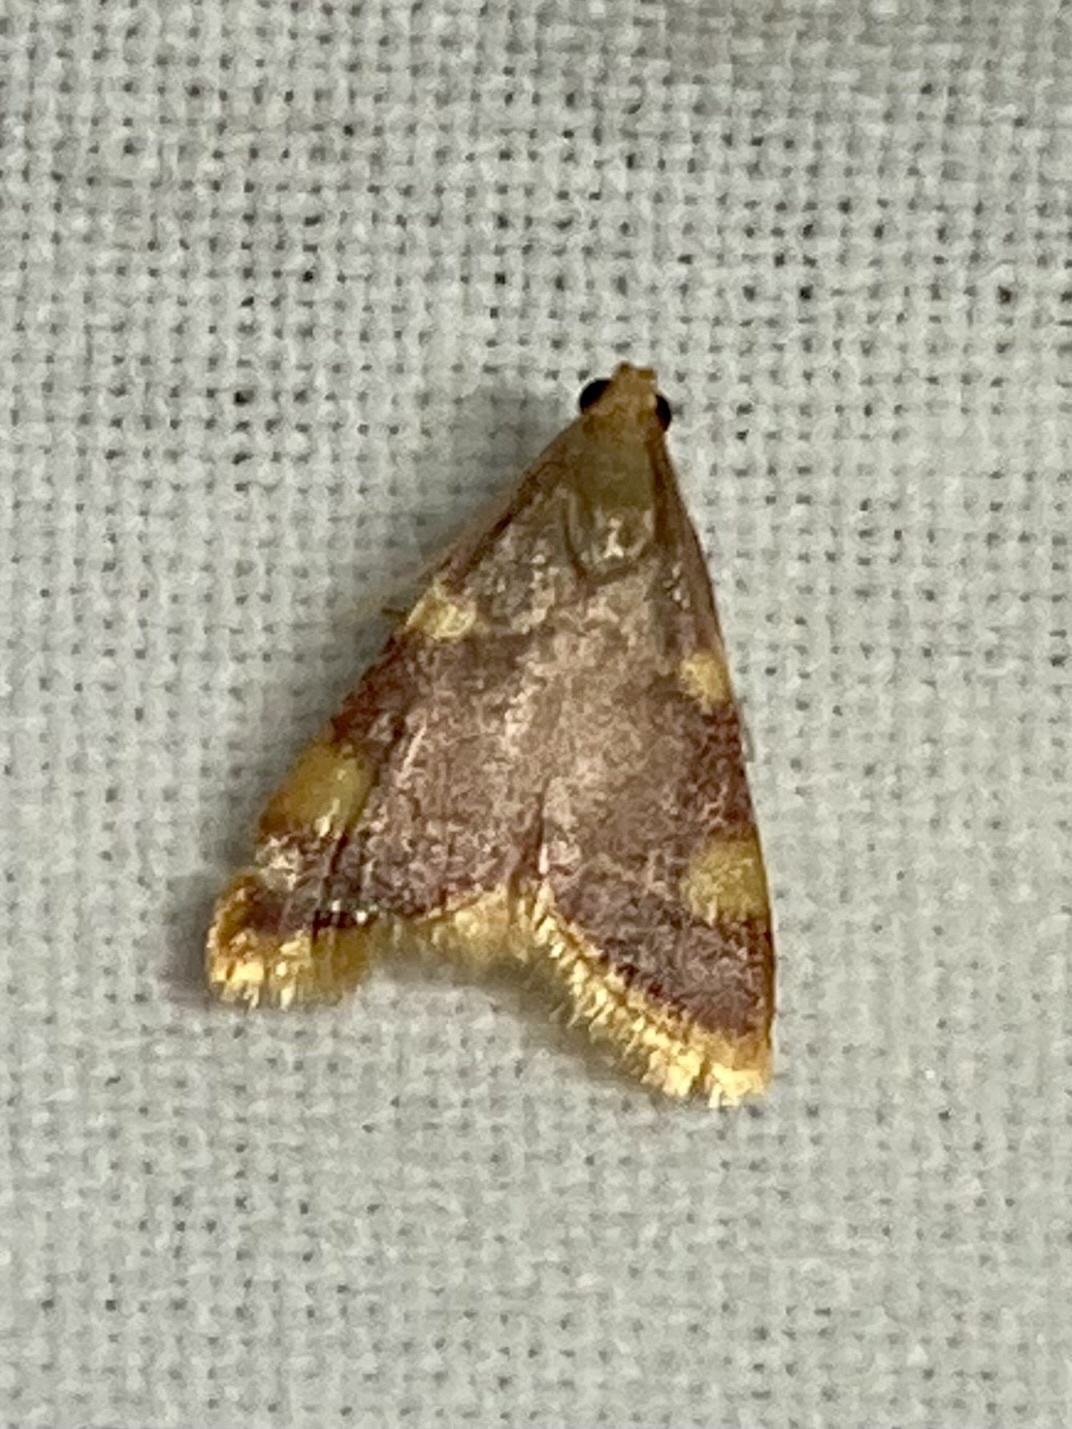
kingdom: Animalia
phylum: Arthropoda
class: Insecta
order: Lepidoptera
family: Pyralidae
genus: Hypsopygia
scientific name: Hypsopygia costalis
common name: Gold triangle
